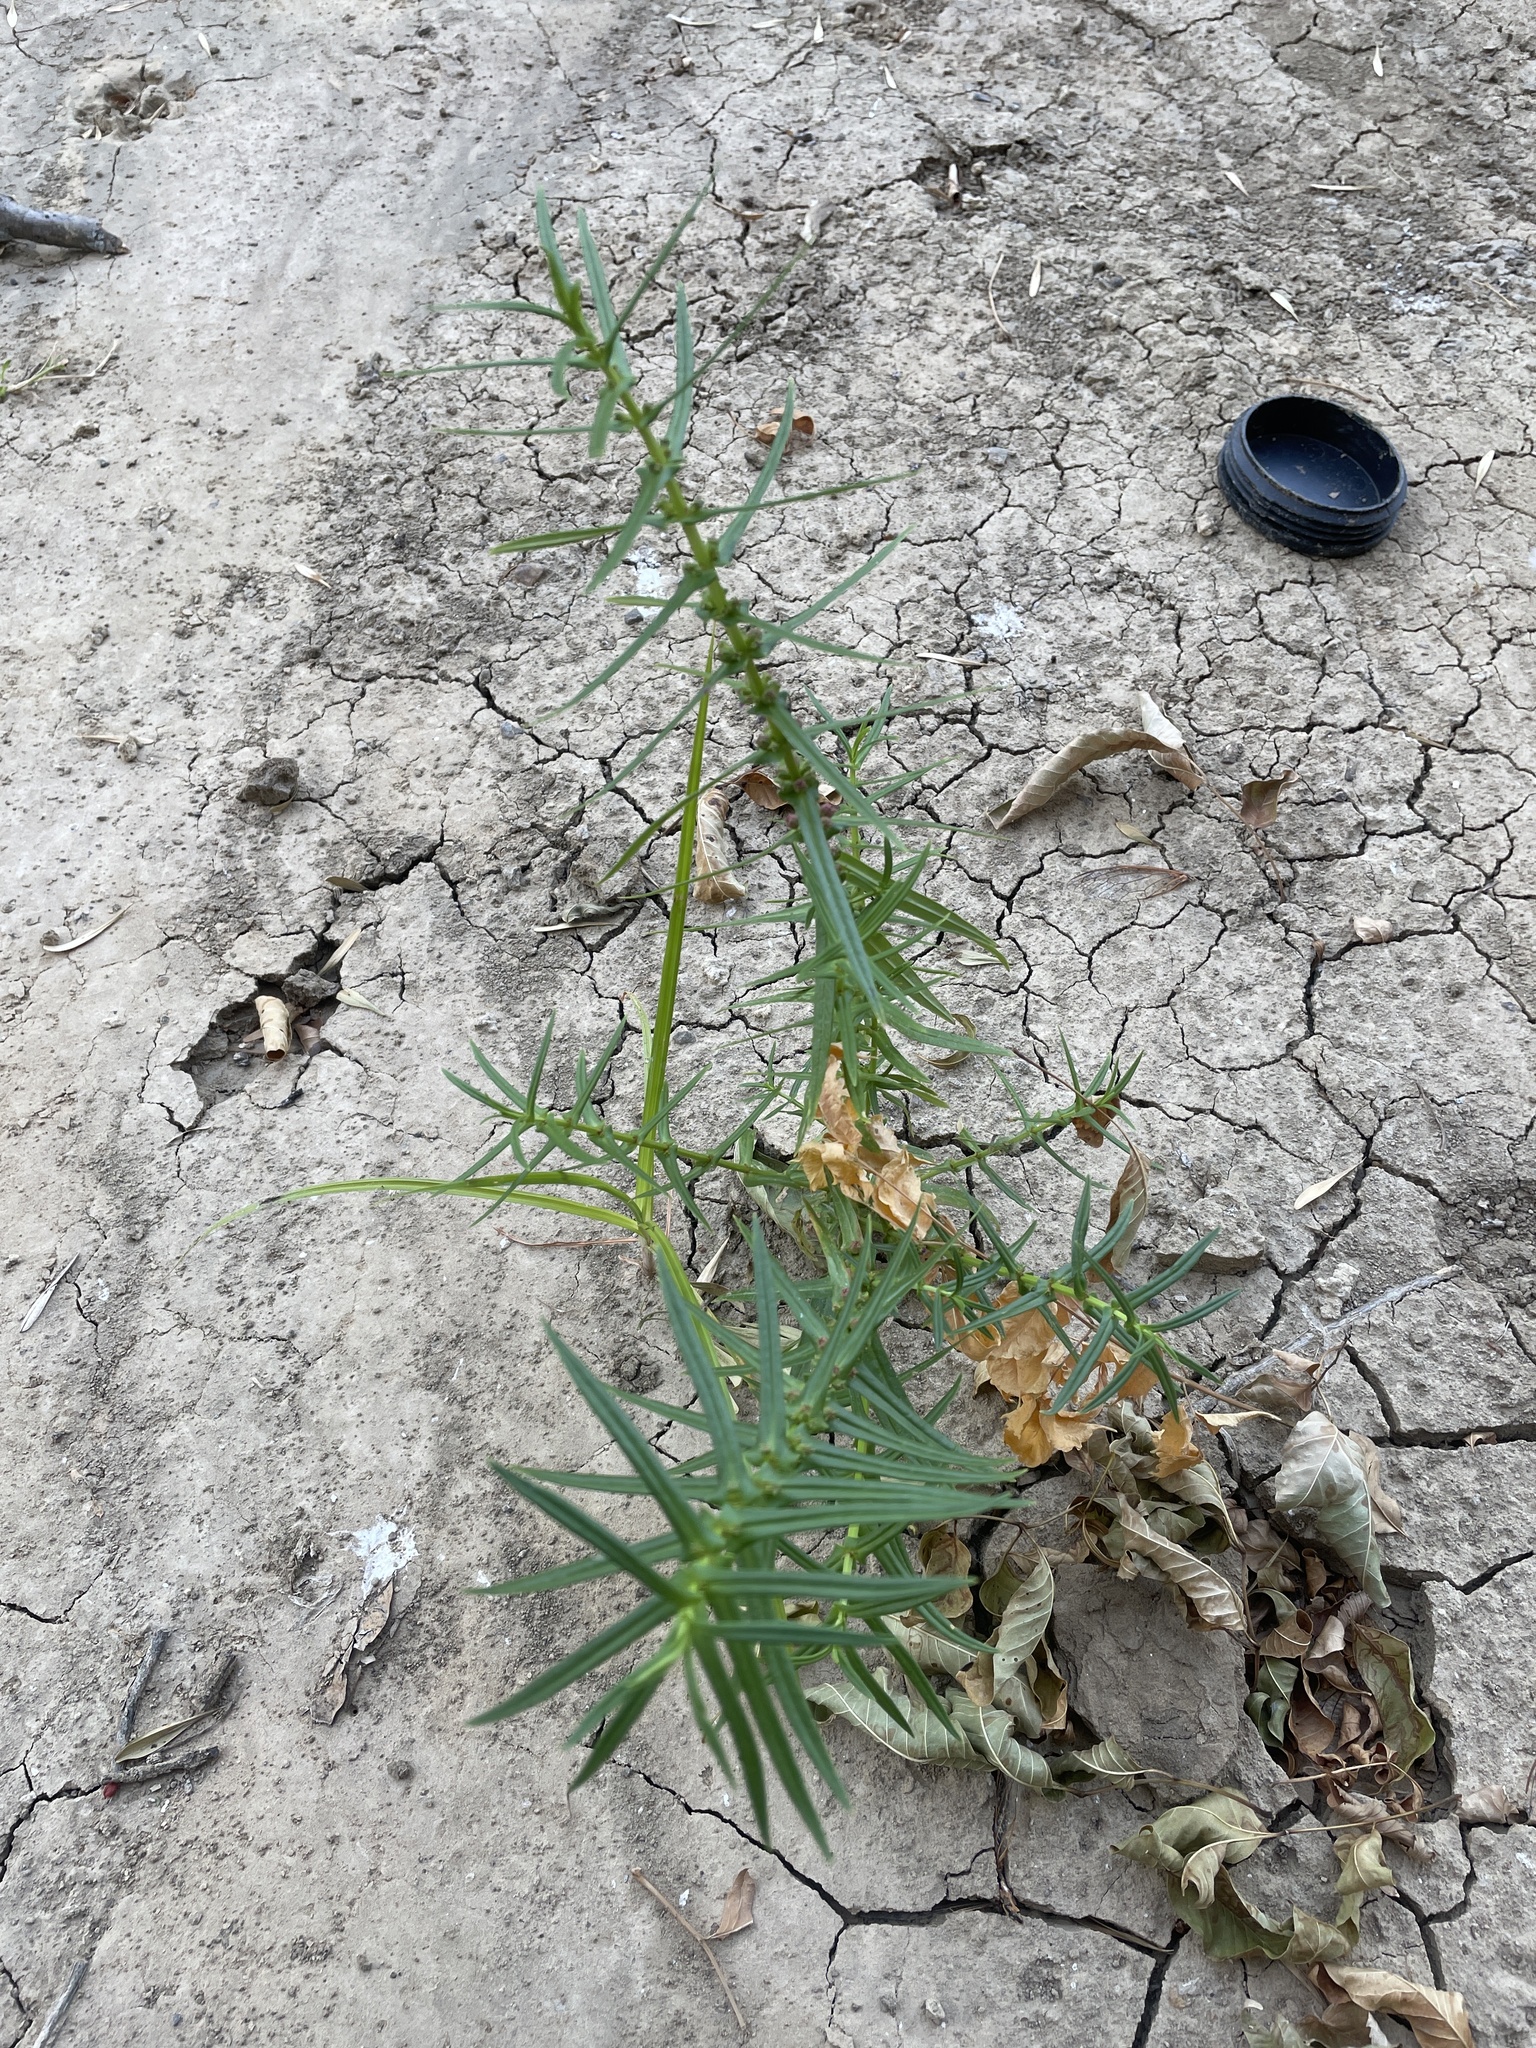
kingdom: Plantae
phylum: Tracheophyta
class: Magnoliopsida
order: Myrtales
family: Lythraceae
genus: Ammannia
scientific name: Ammannia coccinea
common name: Valley redstem
